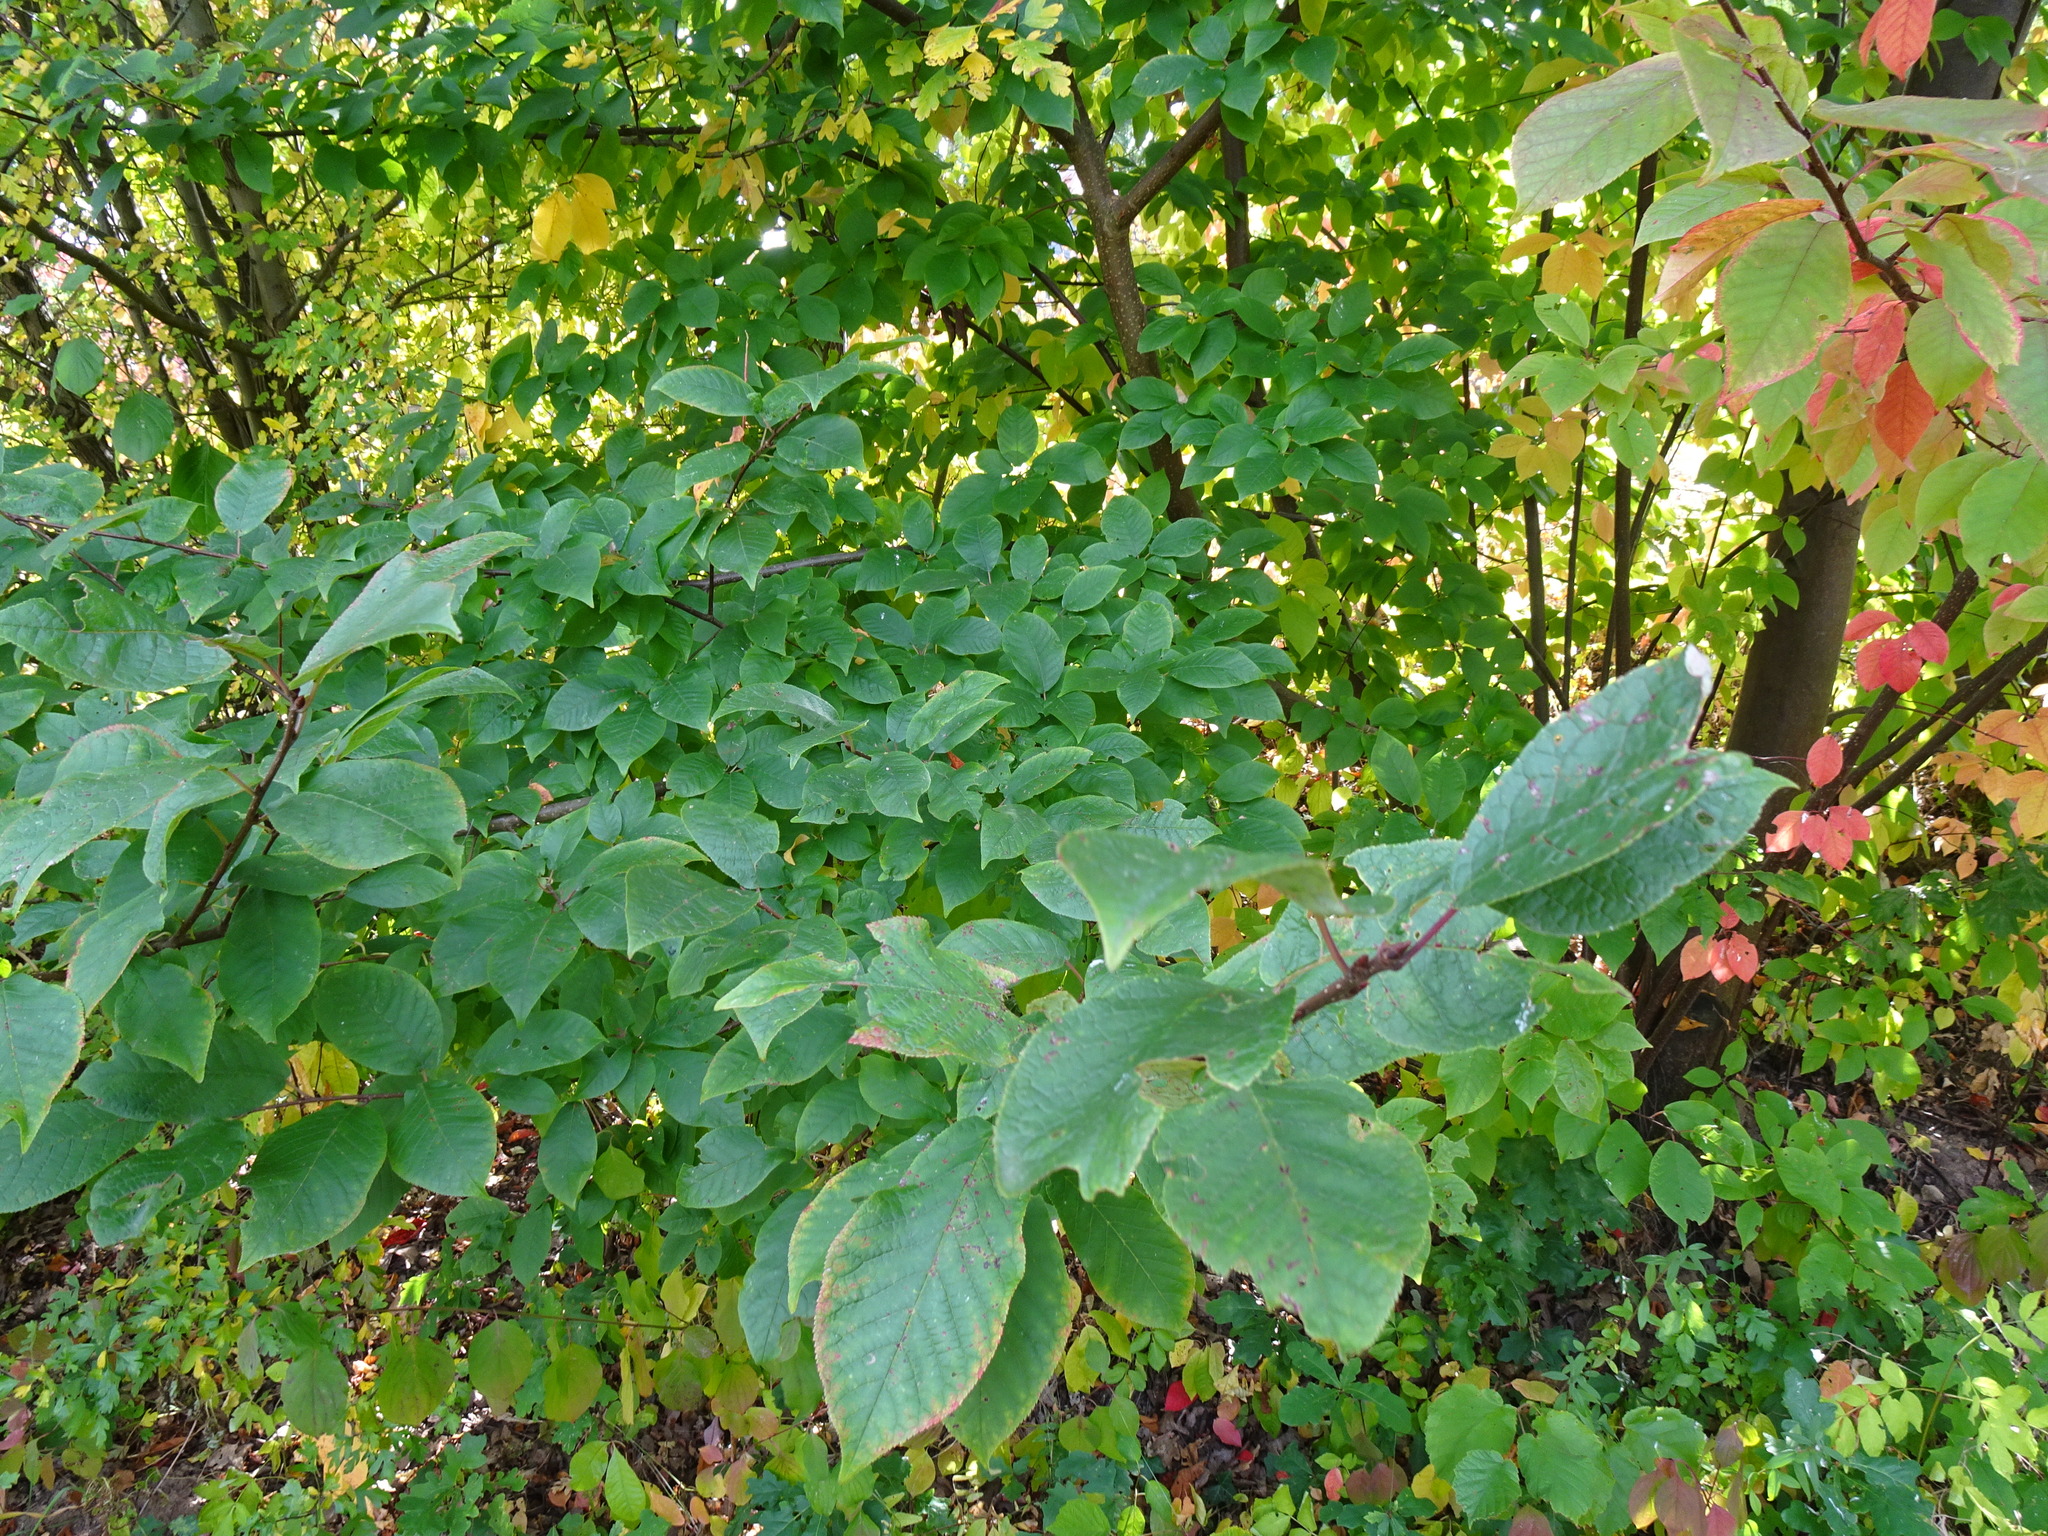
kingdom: Plantae
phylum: Tracheophyta
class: Magnoliopsida
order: Rosales
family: Rosaceae
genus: Prunus
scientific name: Prunus padus
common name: Bird cherry
